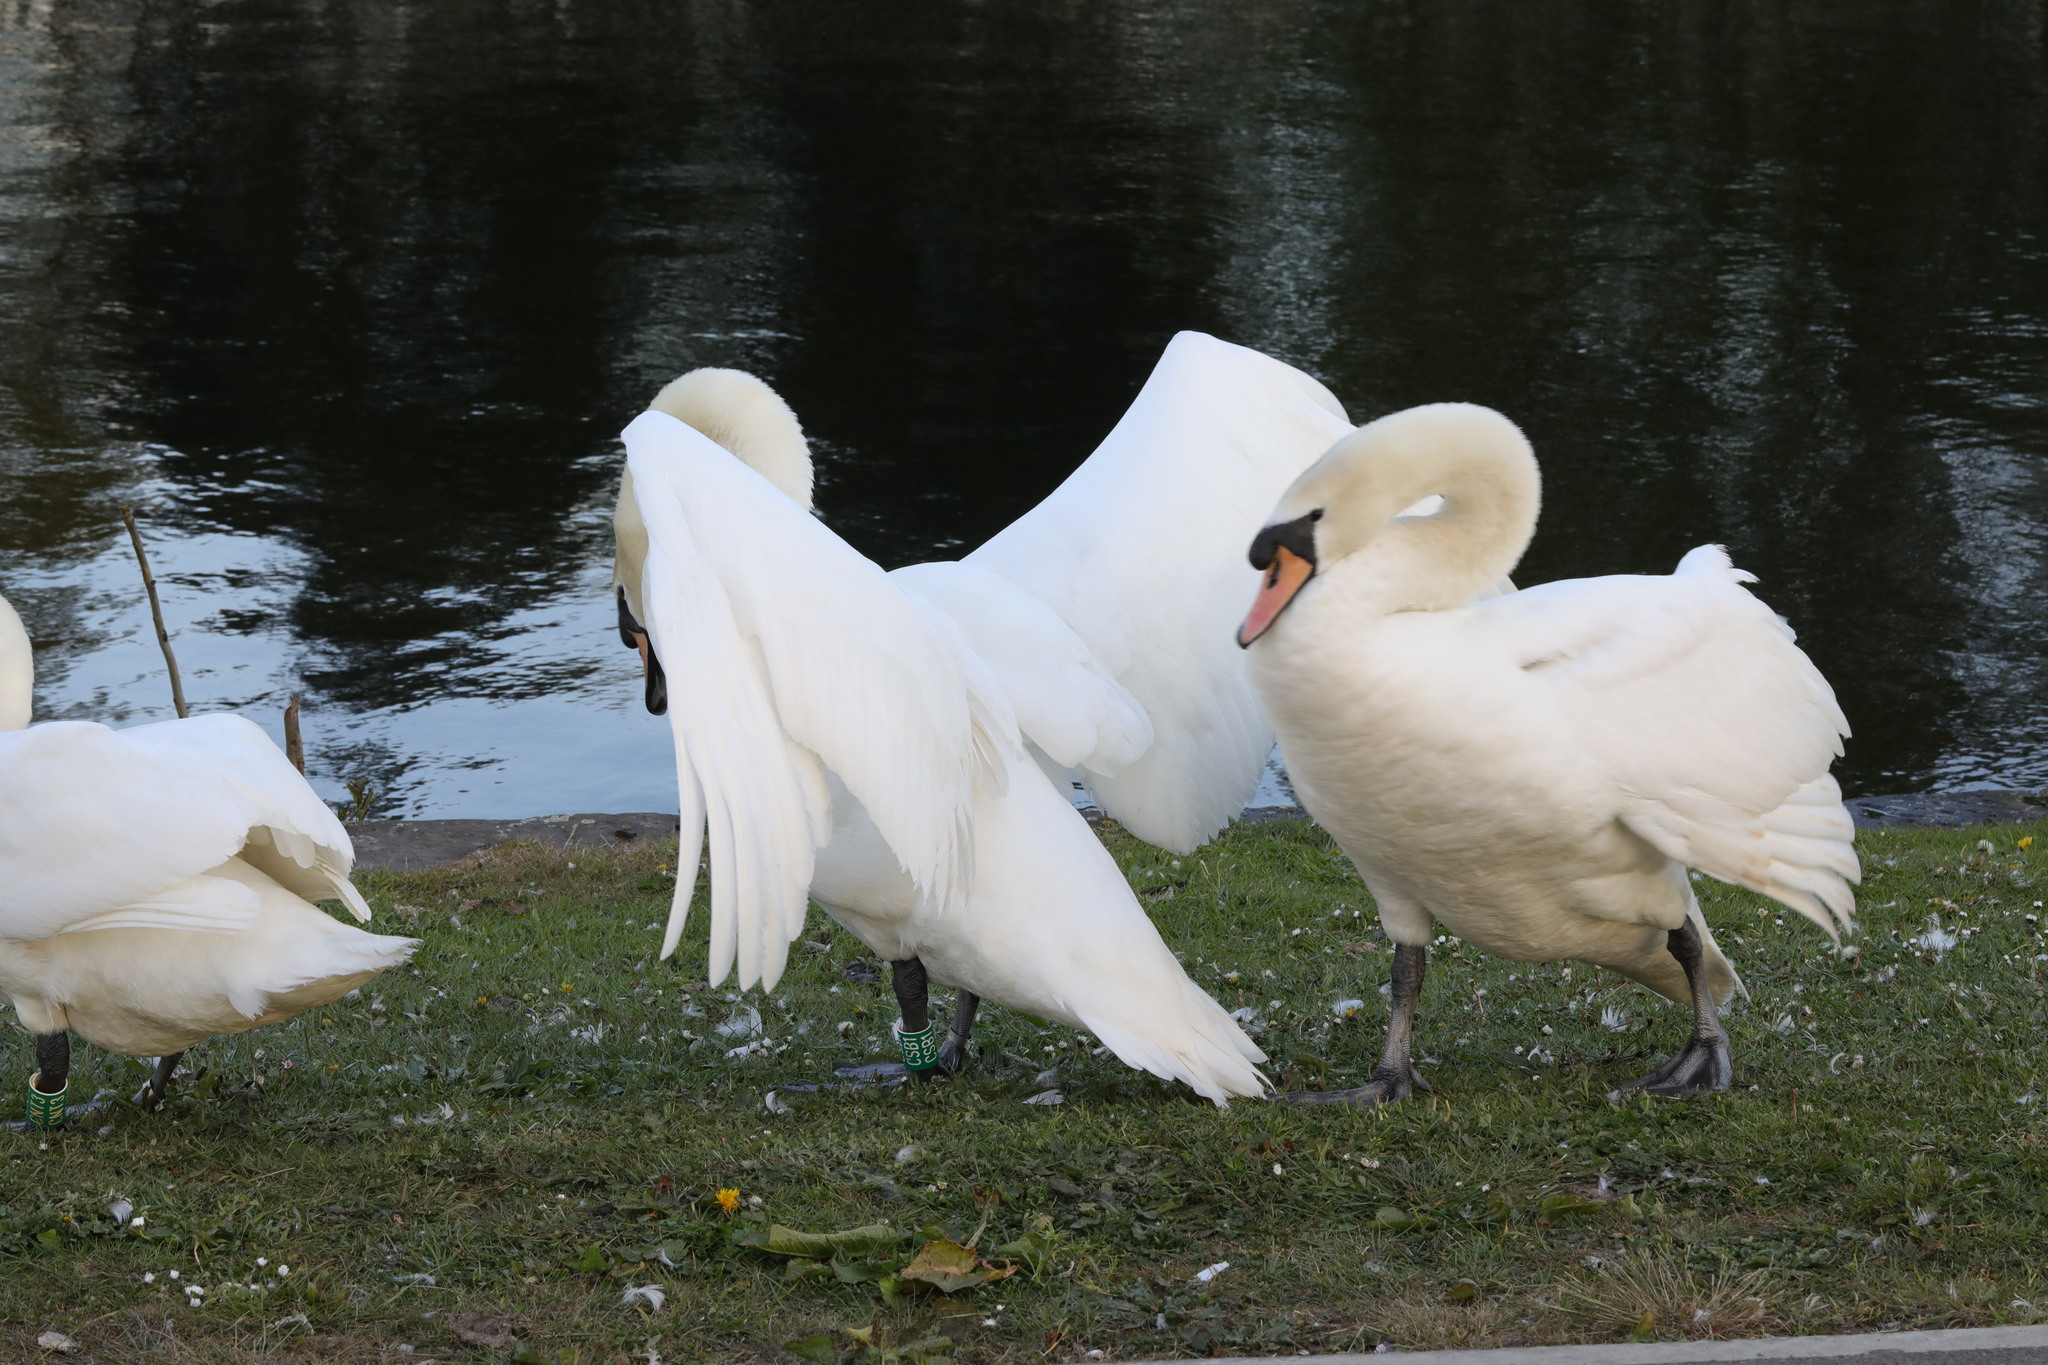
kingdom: Animalia
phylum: Chordata
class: Aves
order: Anseriformes
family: Anatidae
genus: Cygnus
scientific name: Cygnus olor
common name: Mute swan
